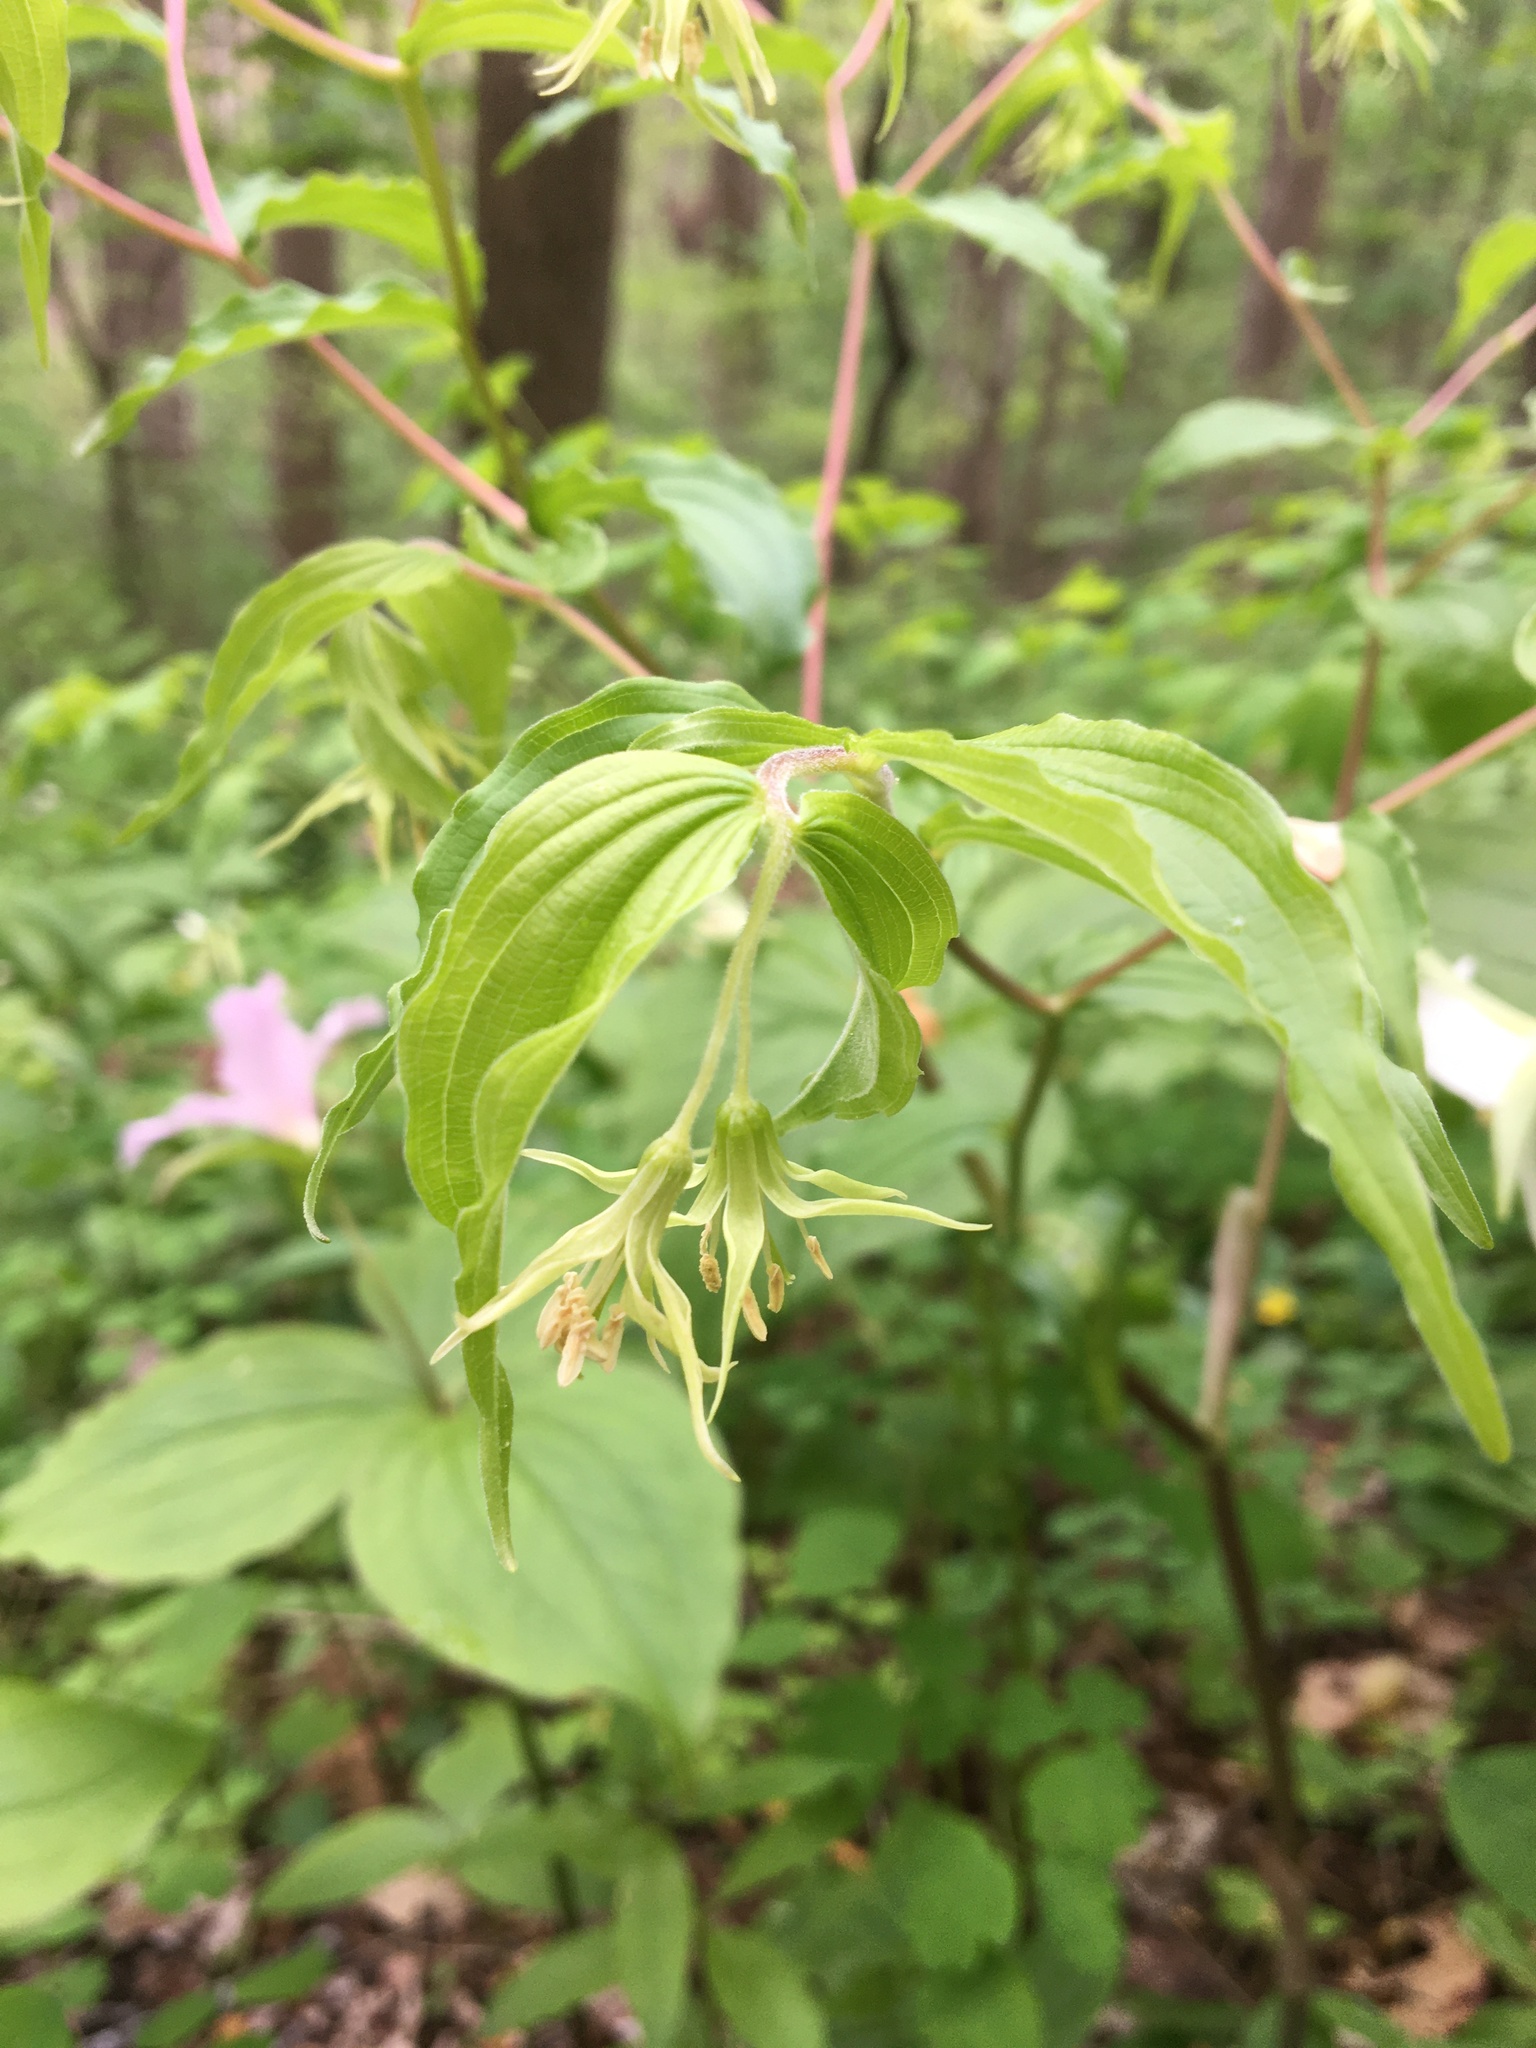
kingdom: Plantae
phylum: Tracheophyta
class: Liliopsida
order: Liliales
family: Liliaceae
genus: Prosartes
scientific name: Prosartes lanuginosa
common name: Hairy mandarin
